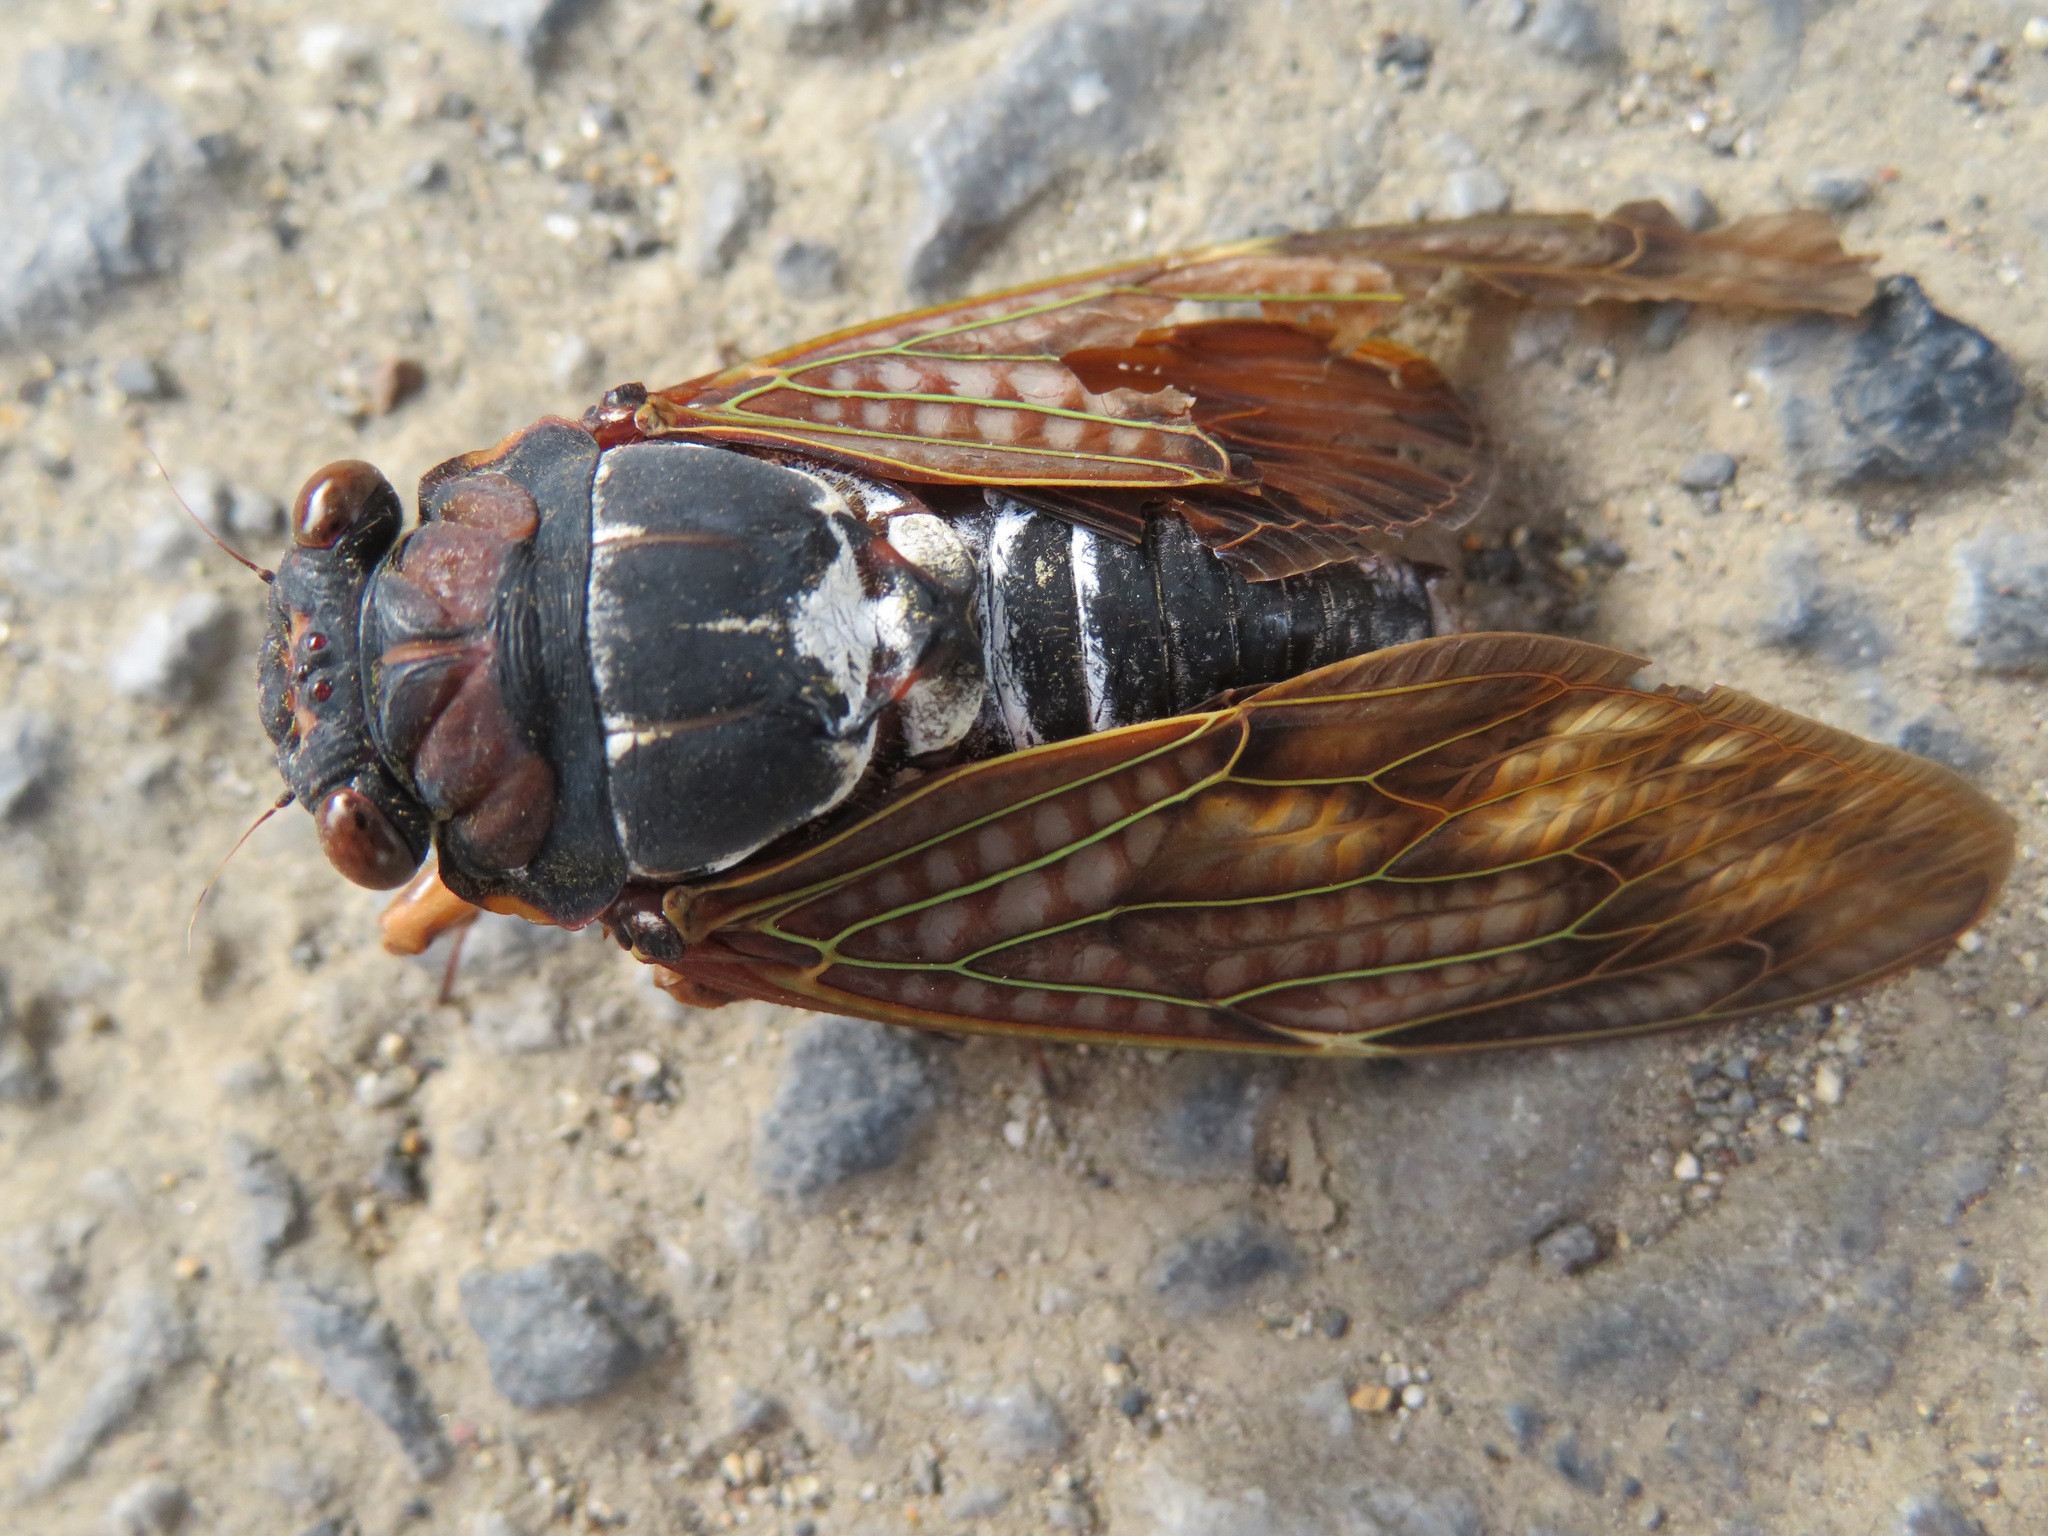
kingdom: Animalia
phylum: Arthropoda
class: Insecta
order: Hemiptera
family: Cicadidae
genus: Graptopsaltria
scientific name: Graptopsaltria nigrofuscata
